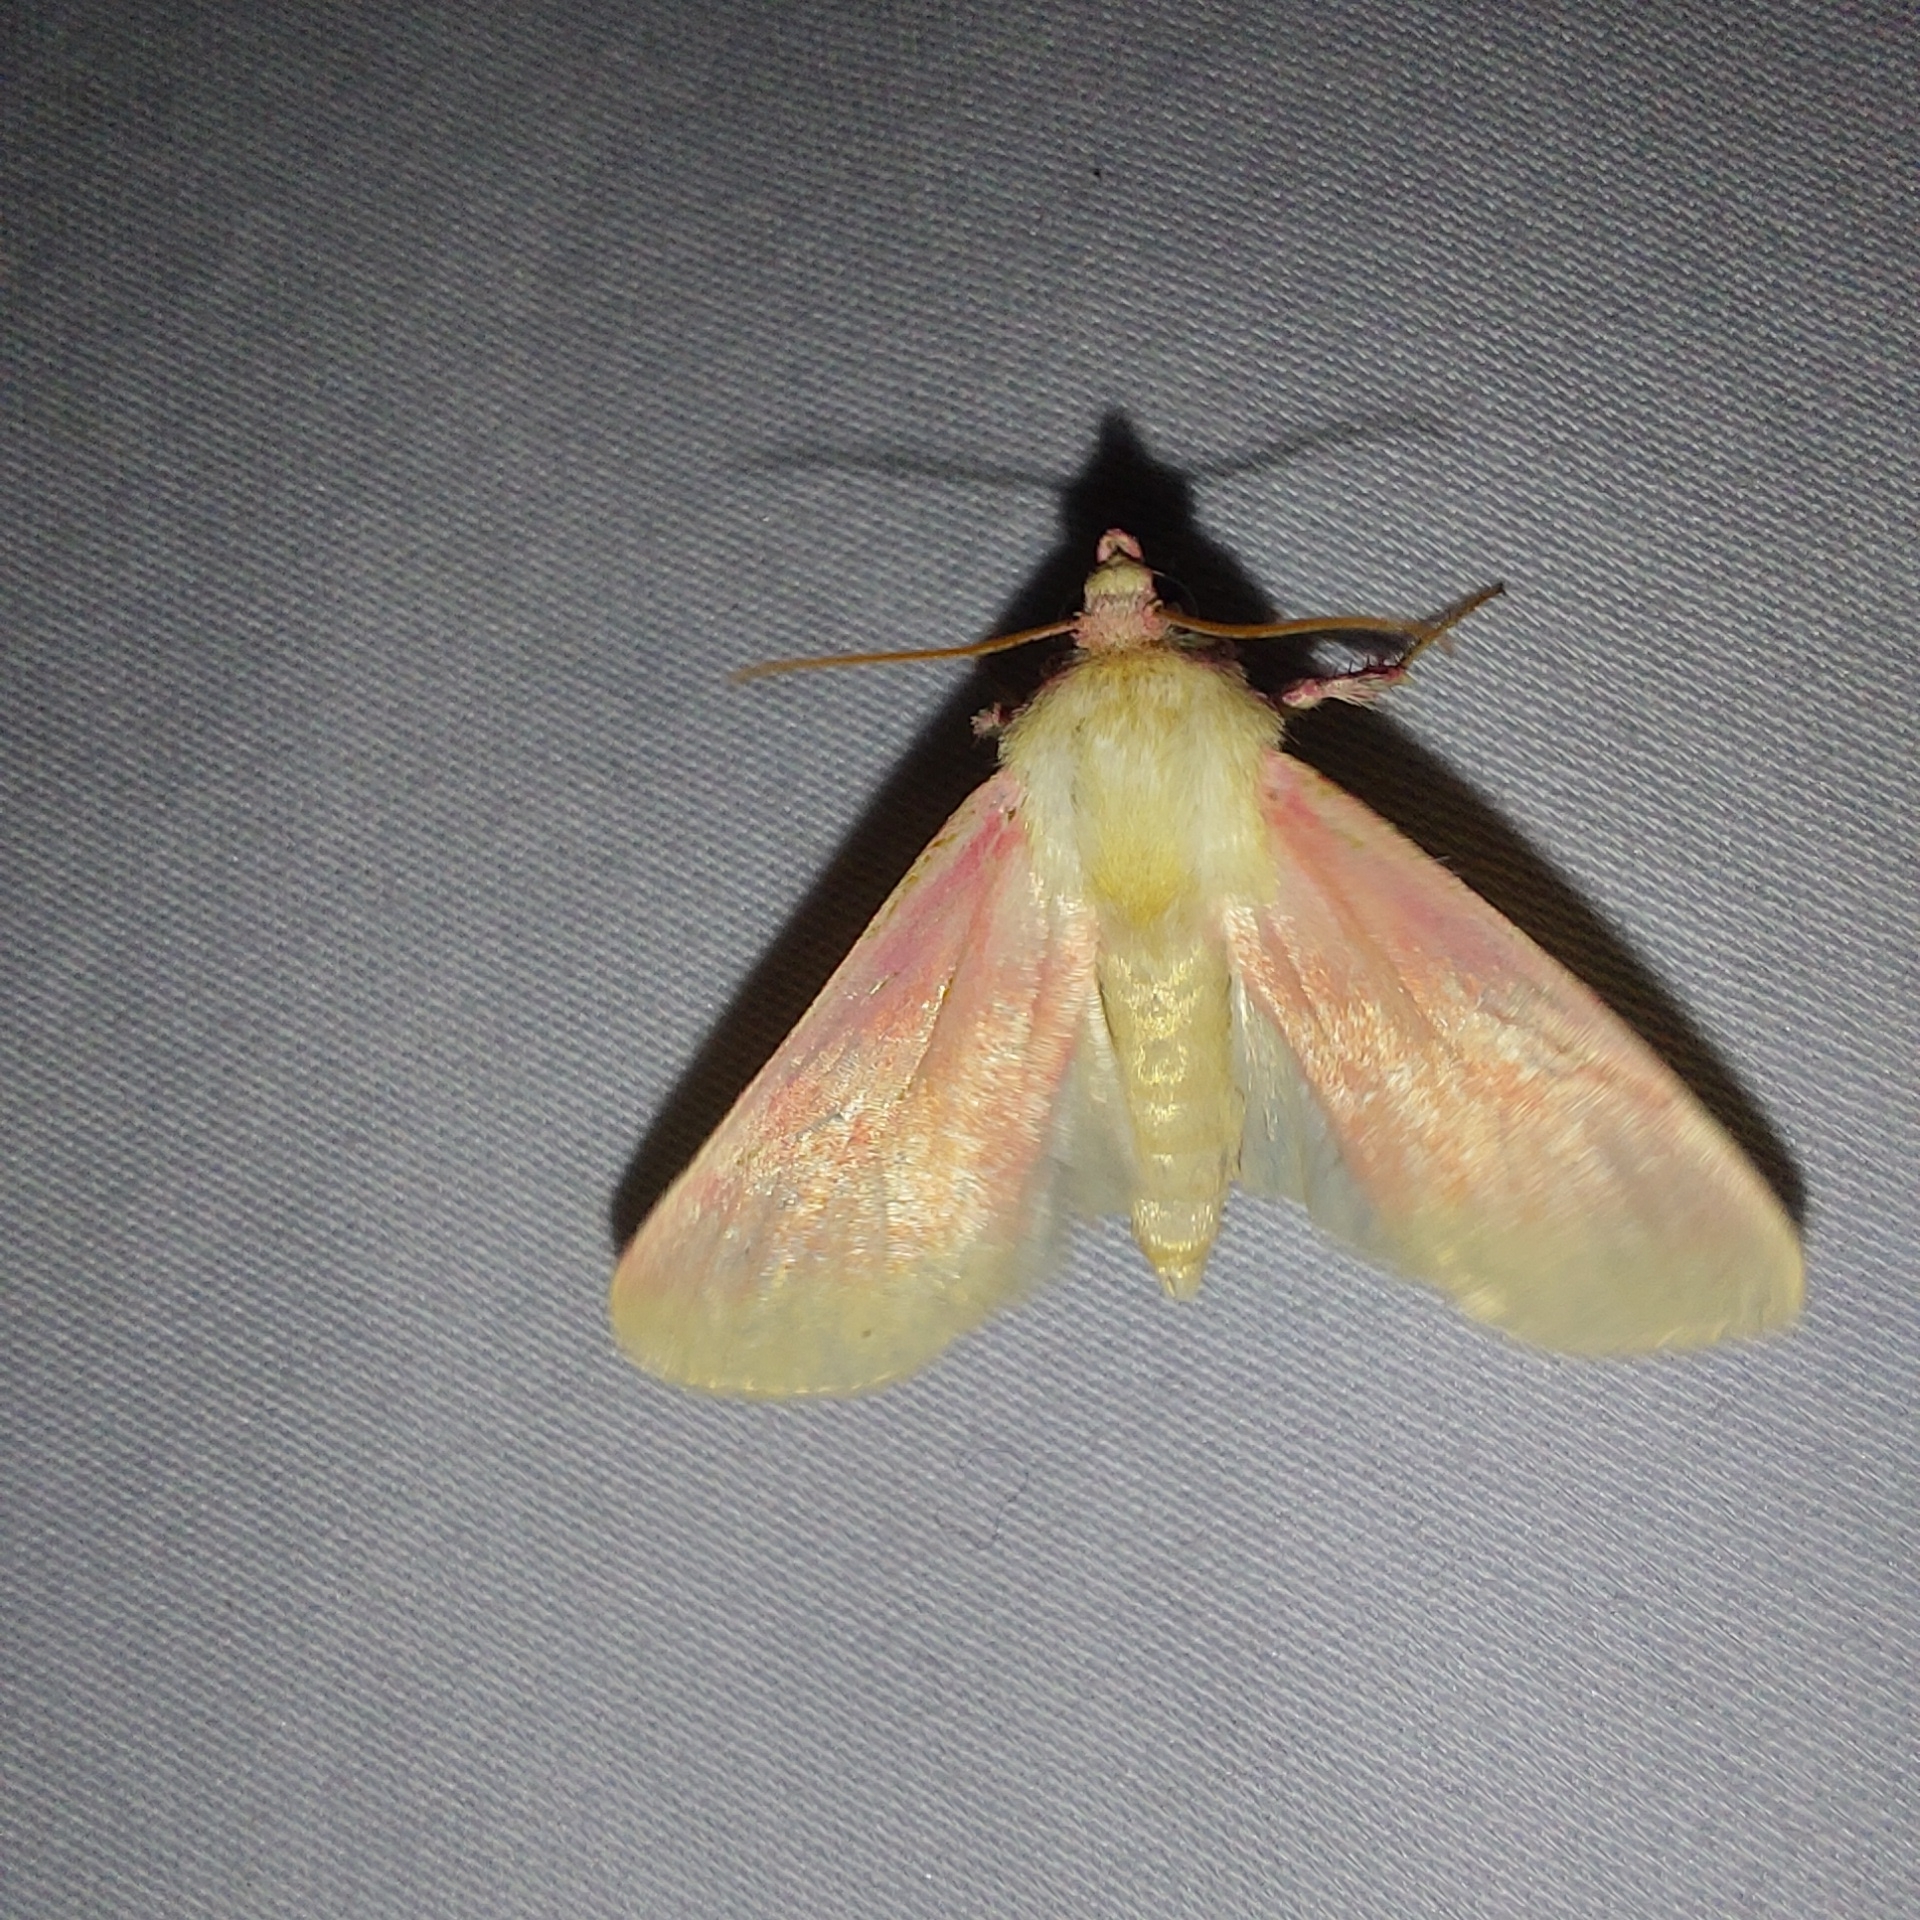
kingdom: Animalia
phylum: Arthropoda
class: Insecta
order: Lepidoptera
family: Noctuidae
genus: Schinia
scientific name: Schinia florida
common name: Primrose moth
